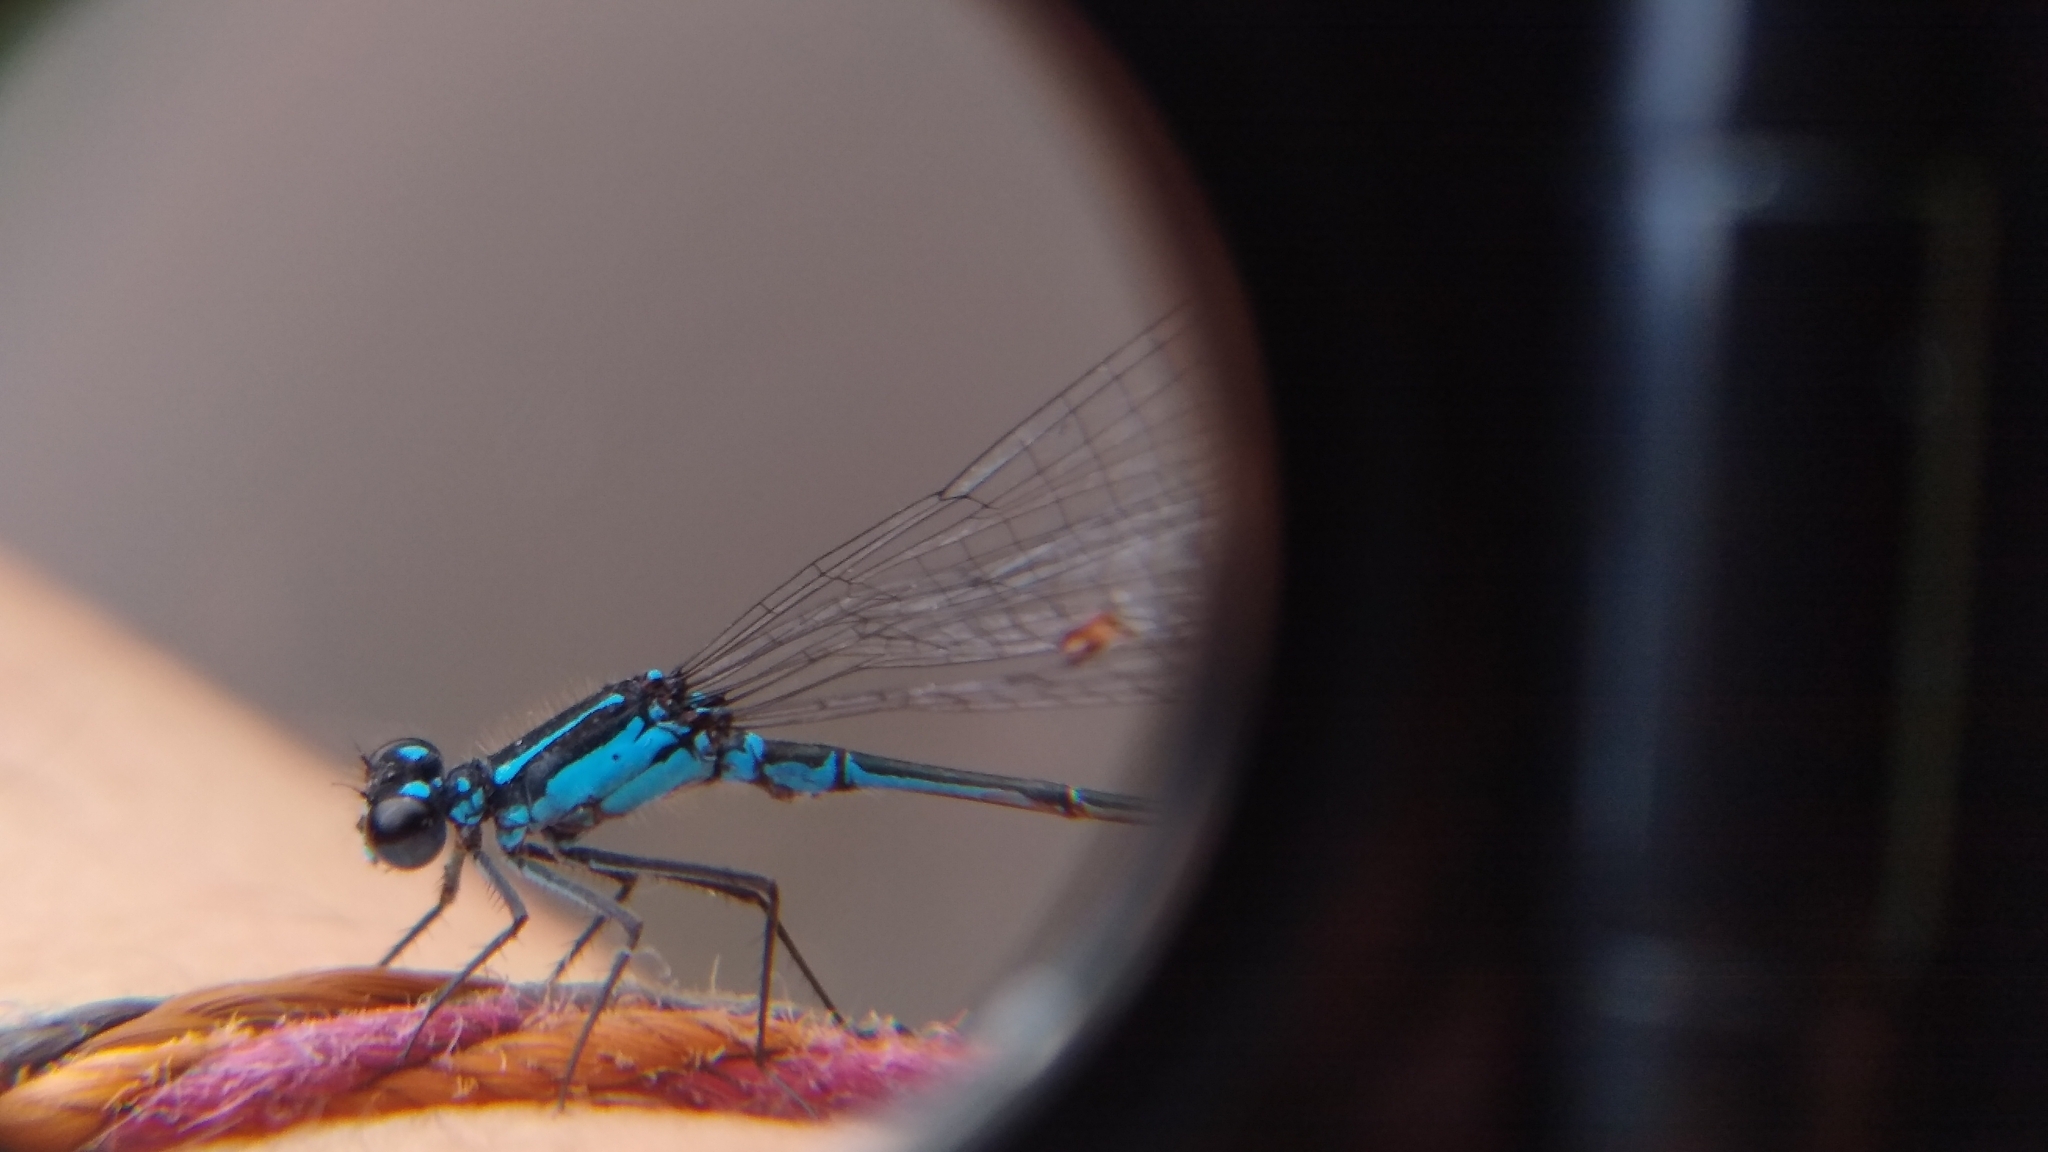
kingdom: Animalia
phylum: Arthropoda
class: Insecta
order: Odonata
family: Coenagrionidae
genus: Homeoura
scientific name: Homeoura chelifera
